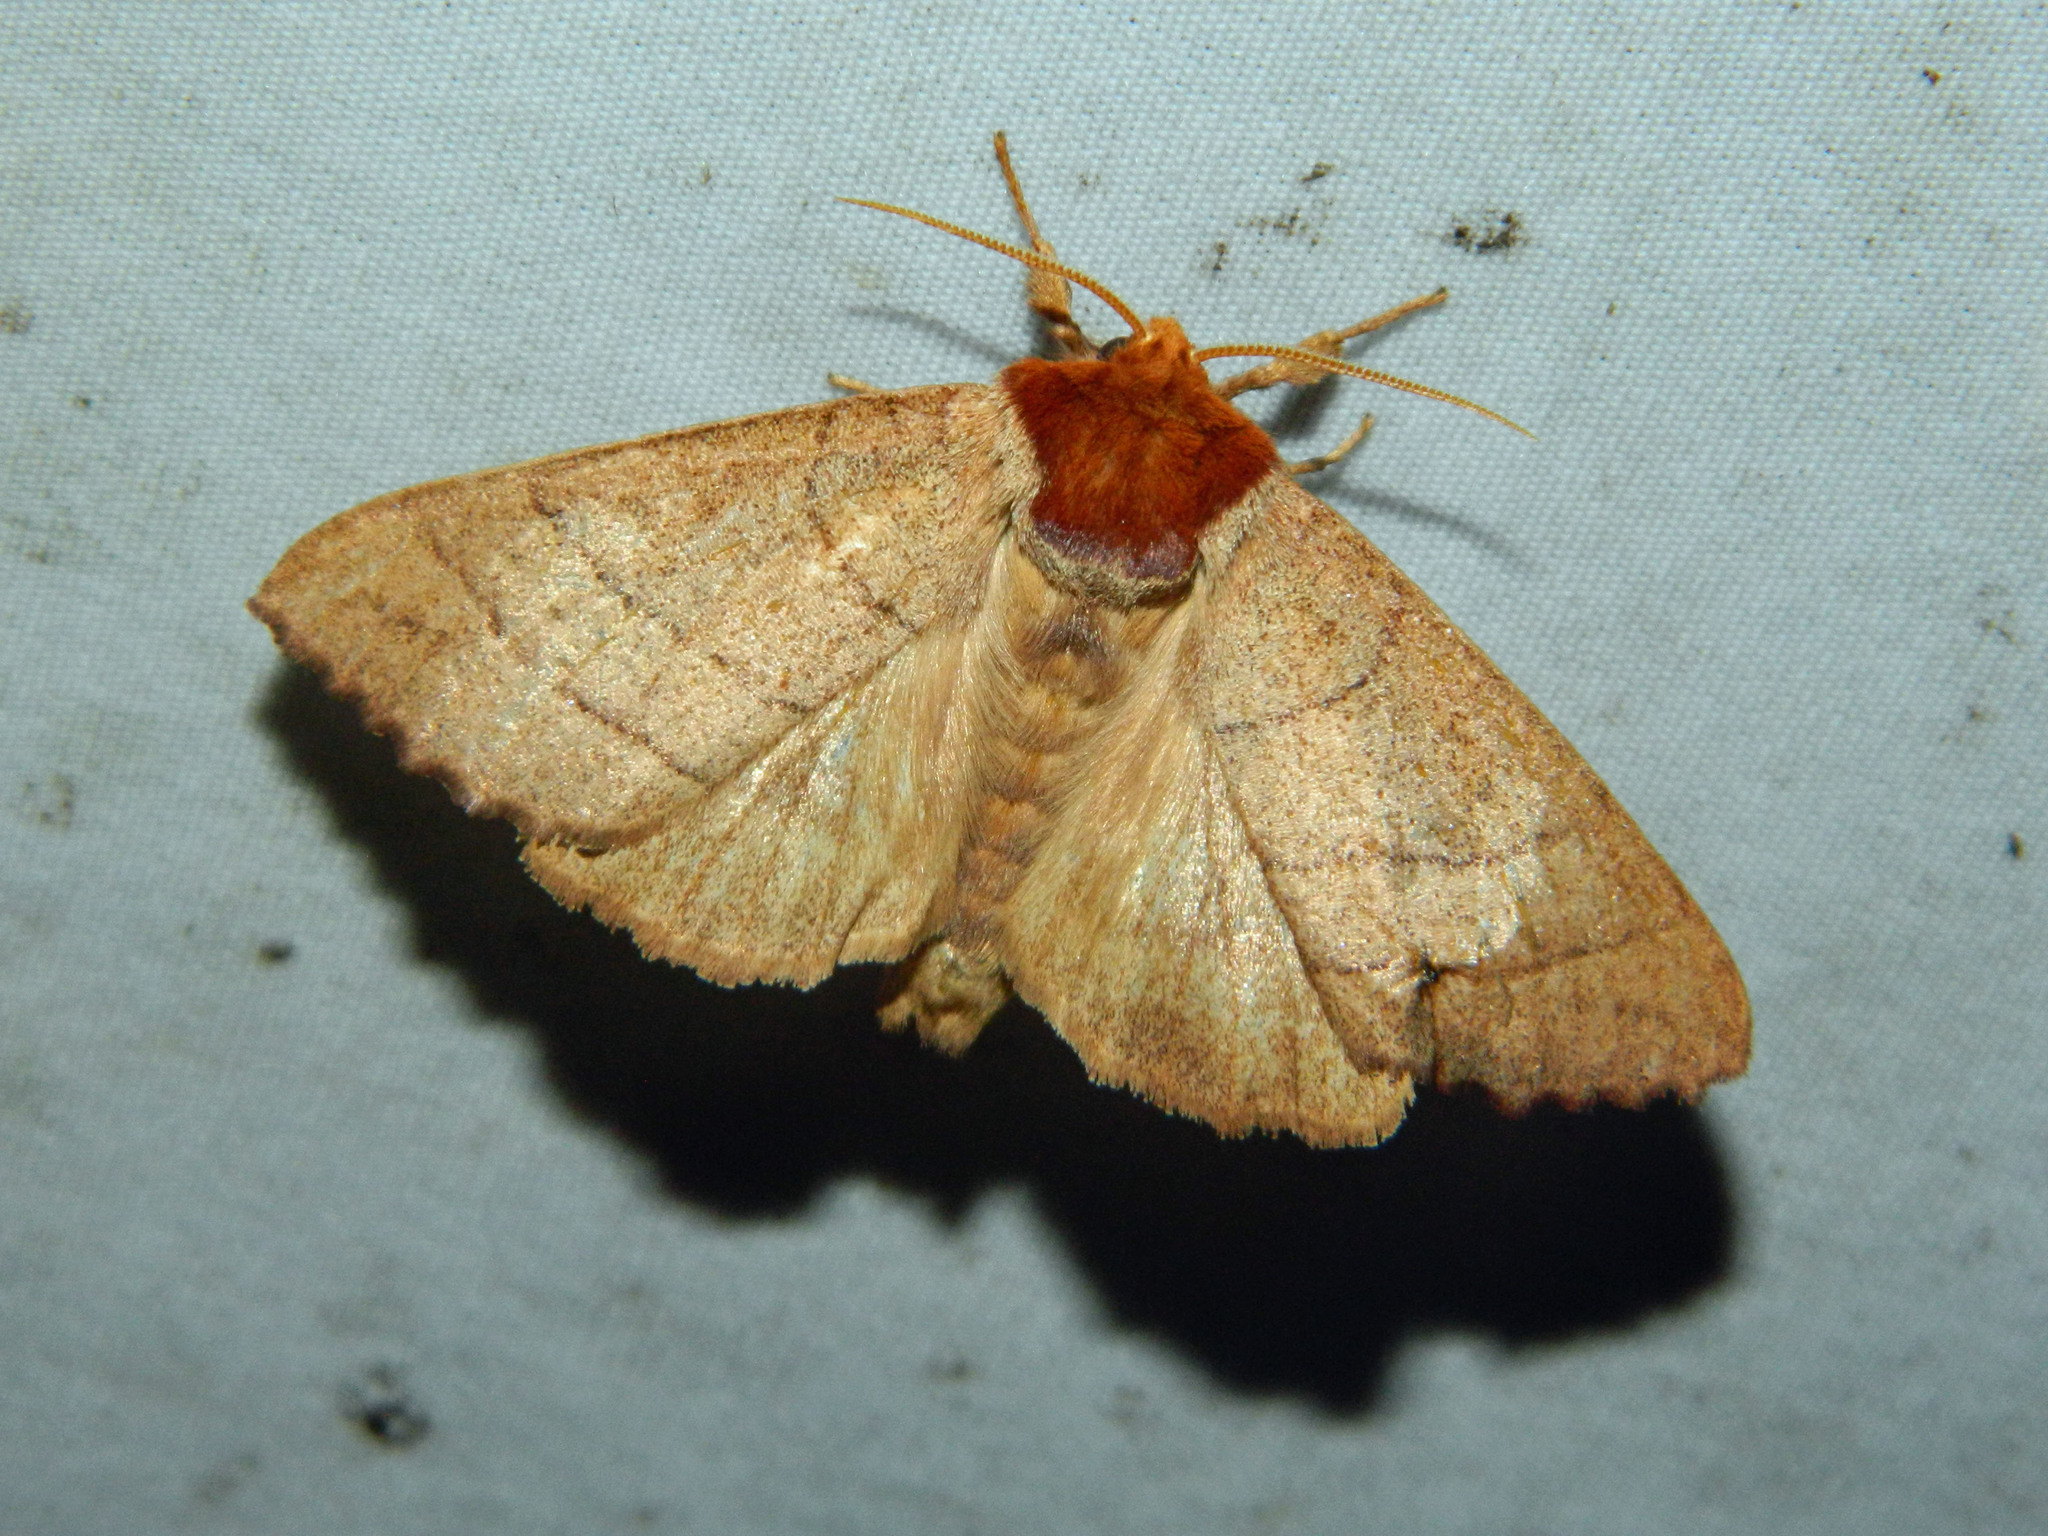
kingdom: Animalia
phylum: Arthropoda
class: Insecta
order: Lepidoptera
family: Notodontidae
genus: Datana
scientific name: Datana ministra
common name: Yellow-necked caterpillar moth
